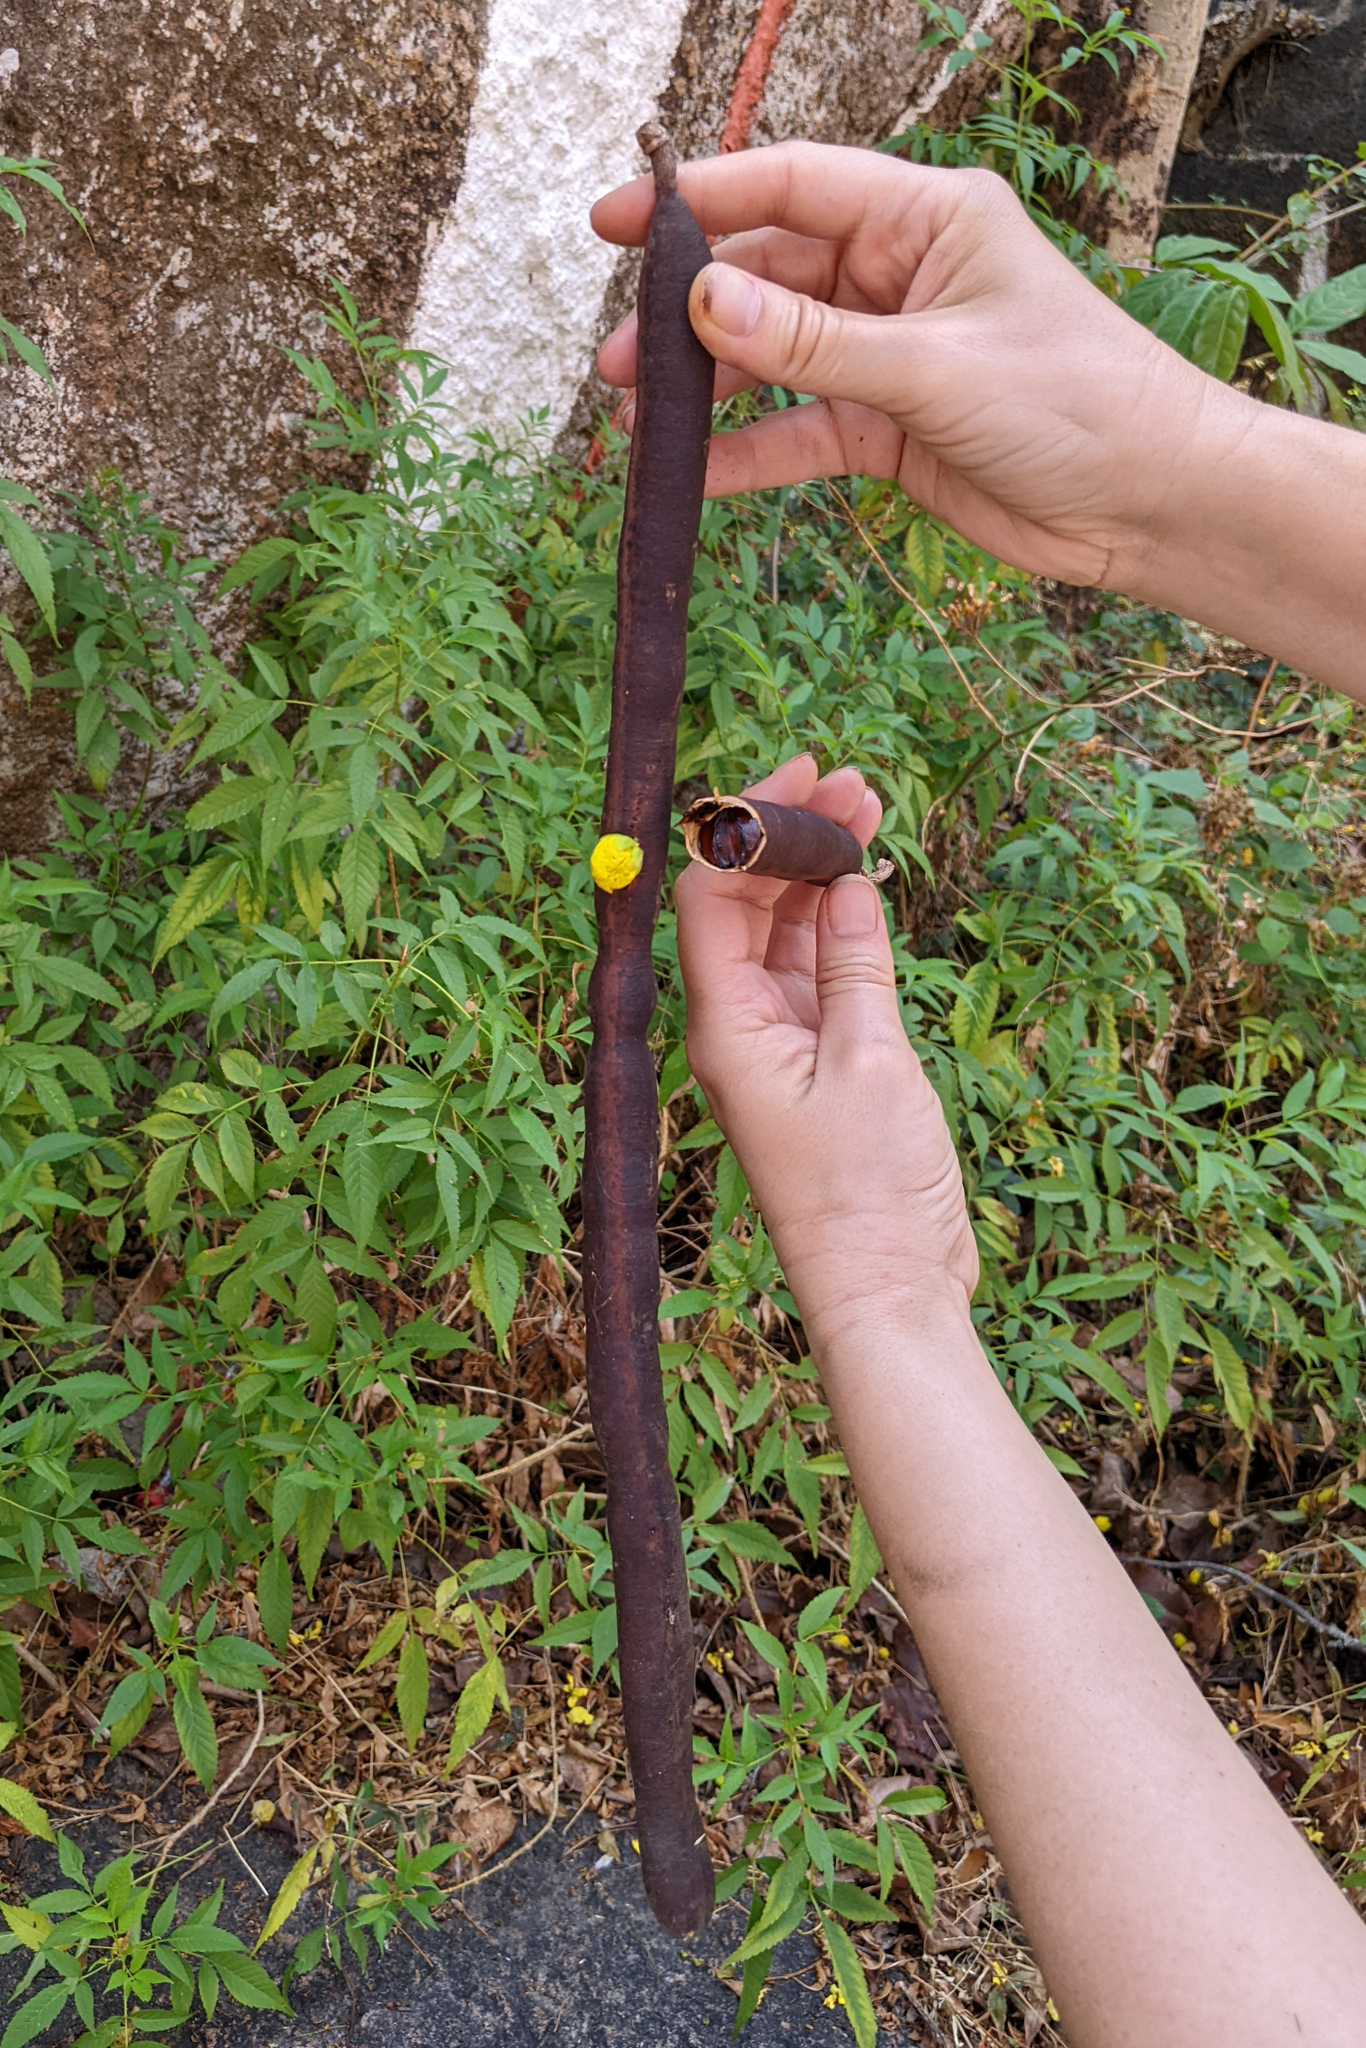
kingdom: Plantae
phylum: Tracheophyta
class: Magnoliopsida
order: Fabales
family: Fabaceae
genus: Cassia
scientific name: Cassia fistula
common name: Golden shower
